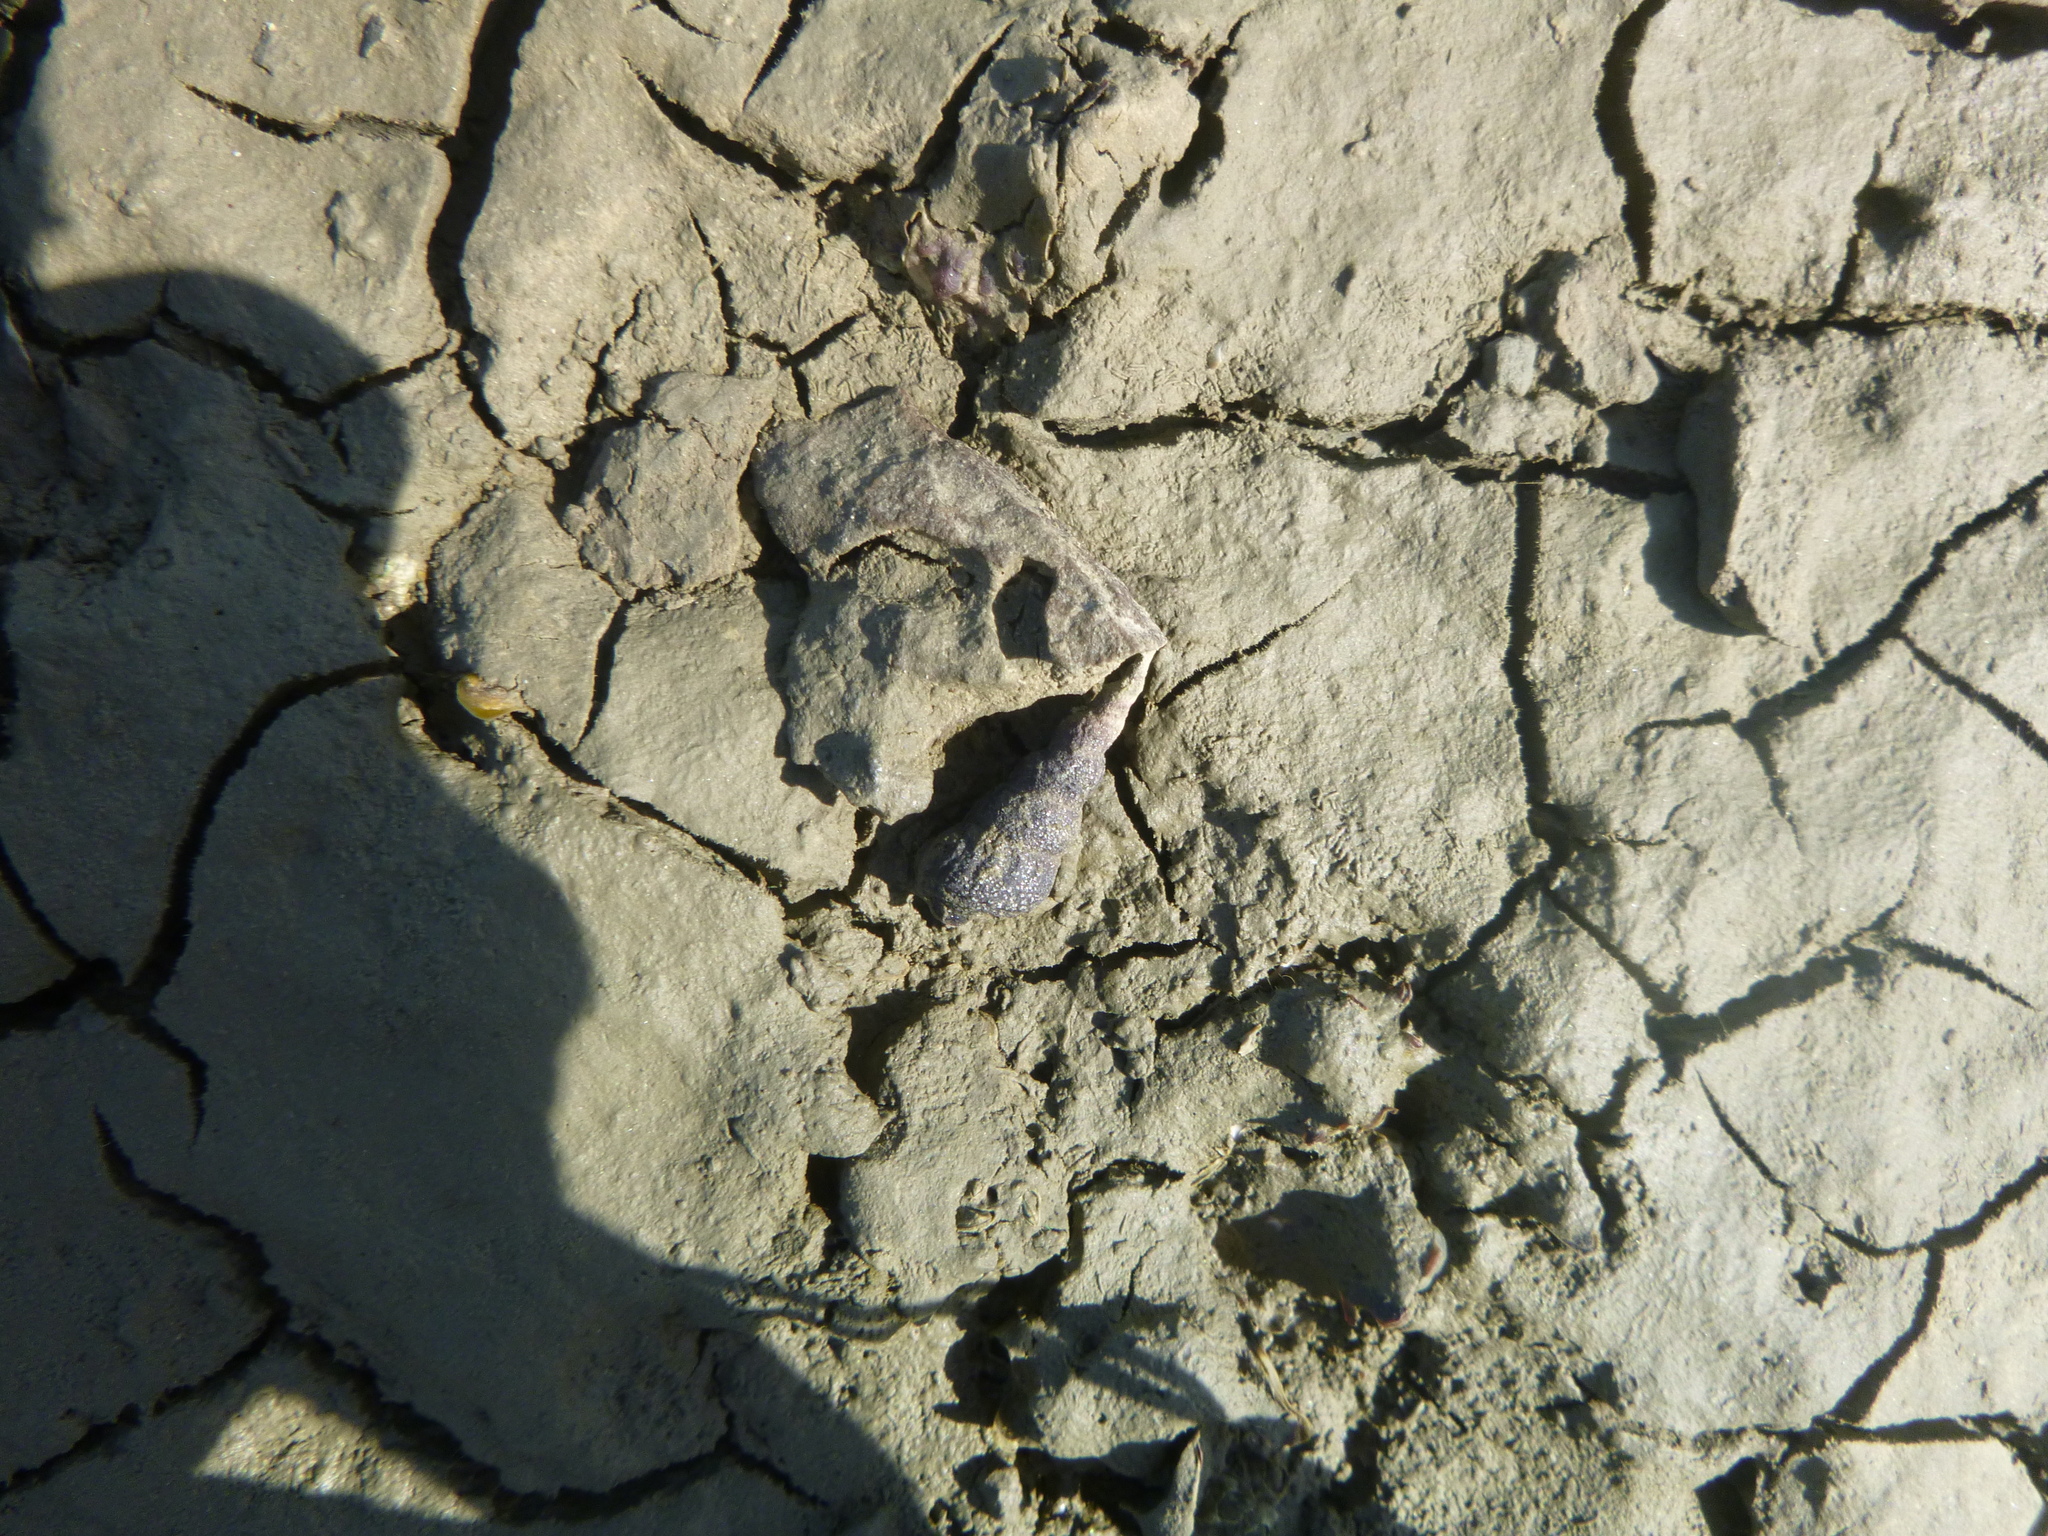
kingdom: Animalia
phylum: Mollusca
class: Gastropoda
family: Batillariidae
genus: Zeacumantus
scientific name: Zeacumantus lutulentus
